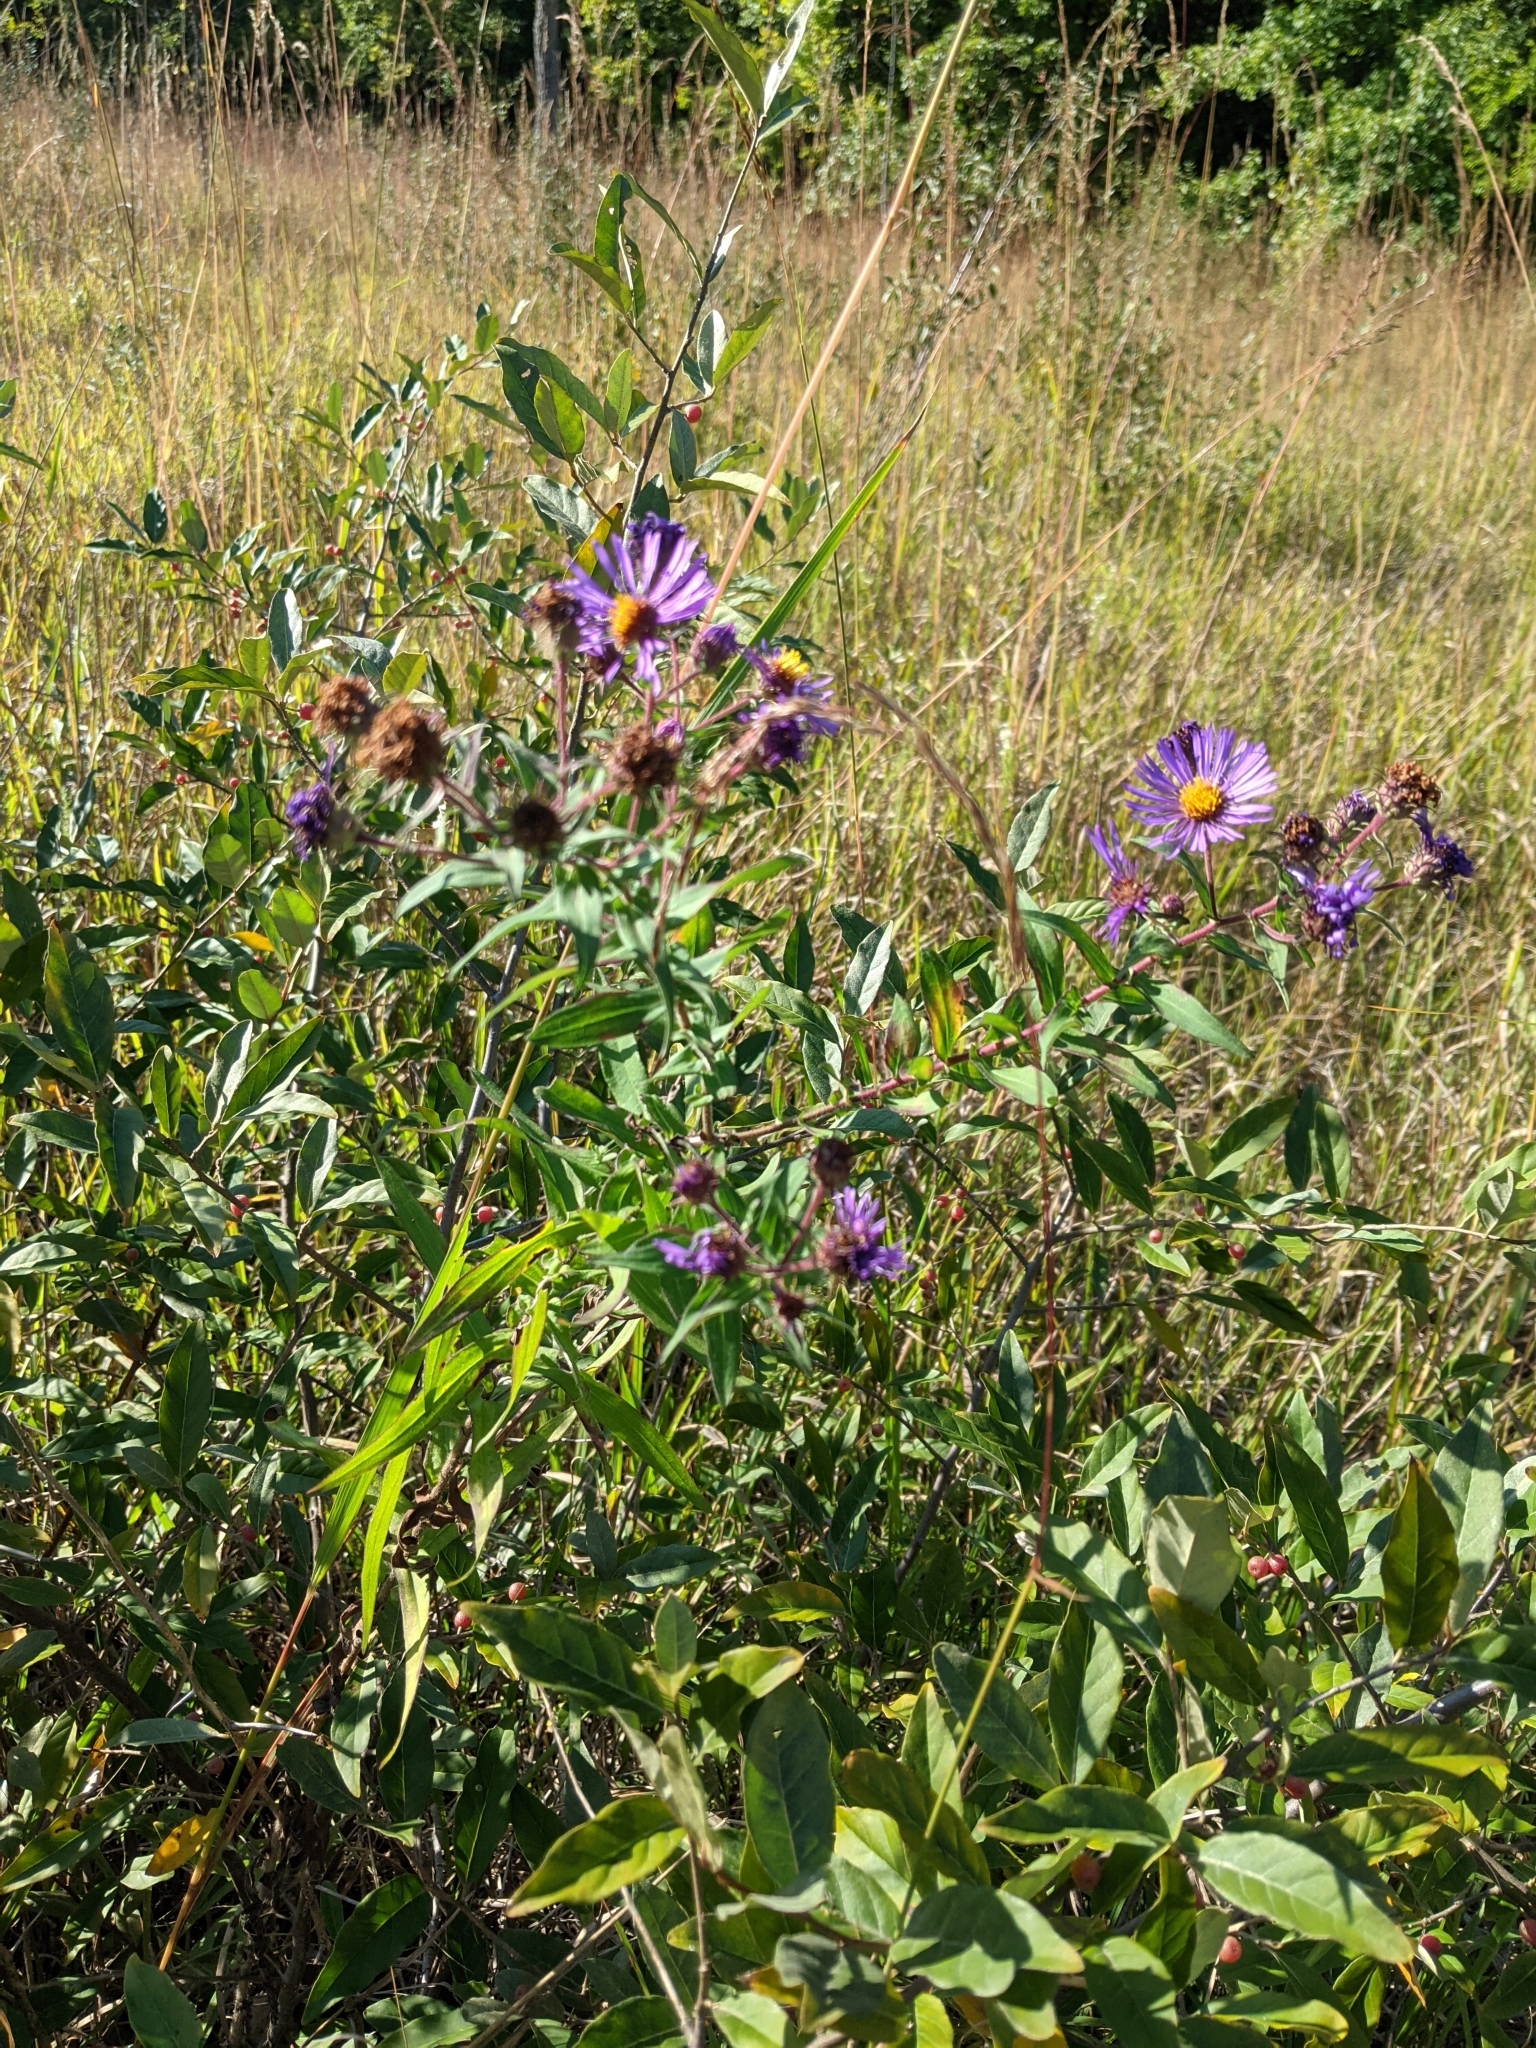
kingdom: Plantae
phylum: Tracheophyta
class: Magnoliopsida
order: Asterales
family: Asteraceae
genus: Symphyotrichum
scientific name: Symphyotrichum novae-angliae
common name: Michaelmas daisy
